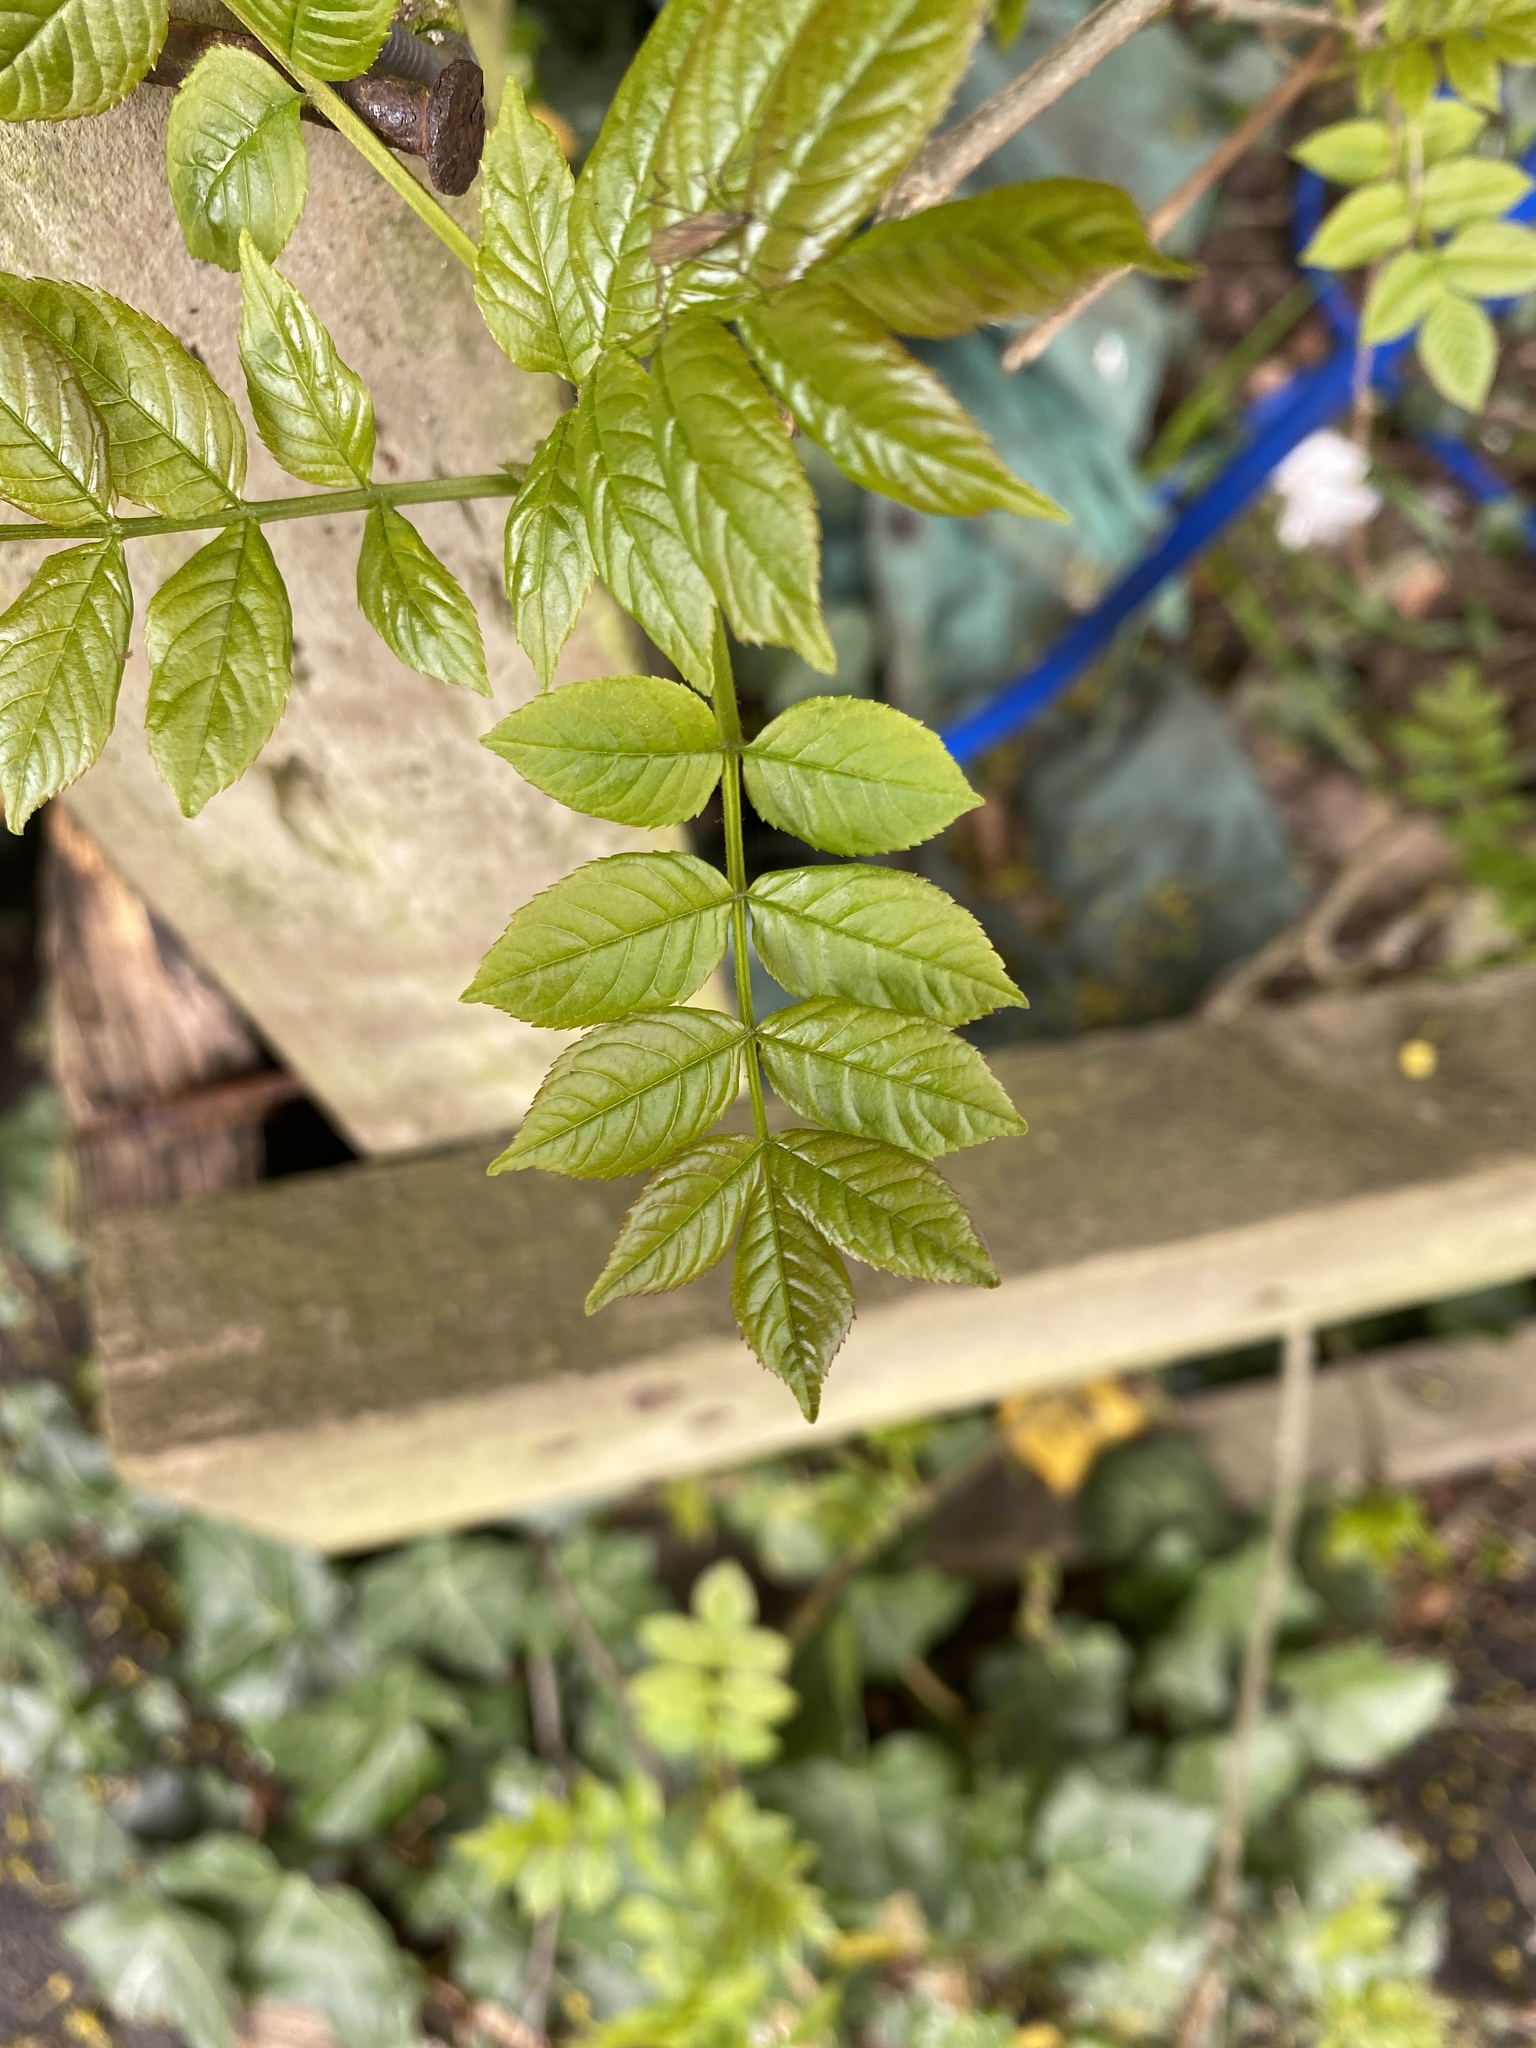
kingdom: Plantae
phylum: Tracheophyta
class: Magnoliopsida
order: Lamiales
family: Oleaceae
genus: Fraxinus
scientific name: Fraxinus excelsior
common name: European ash
